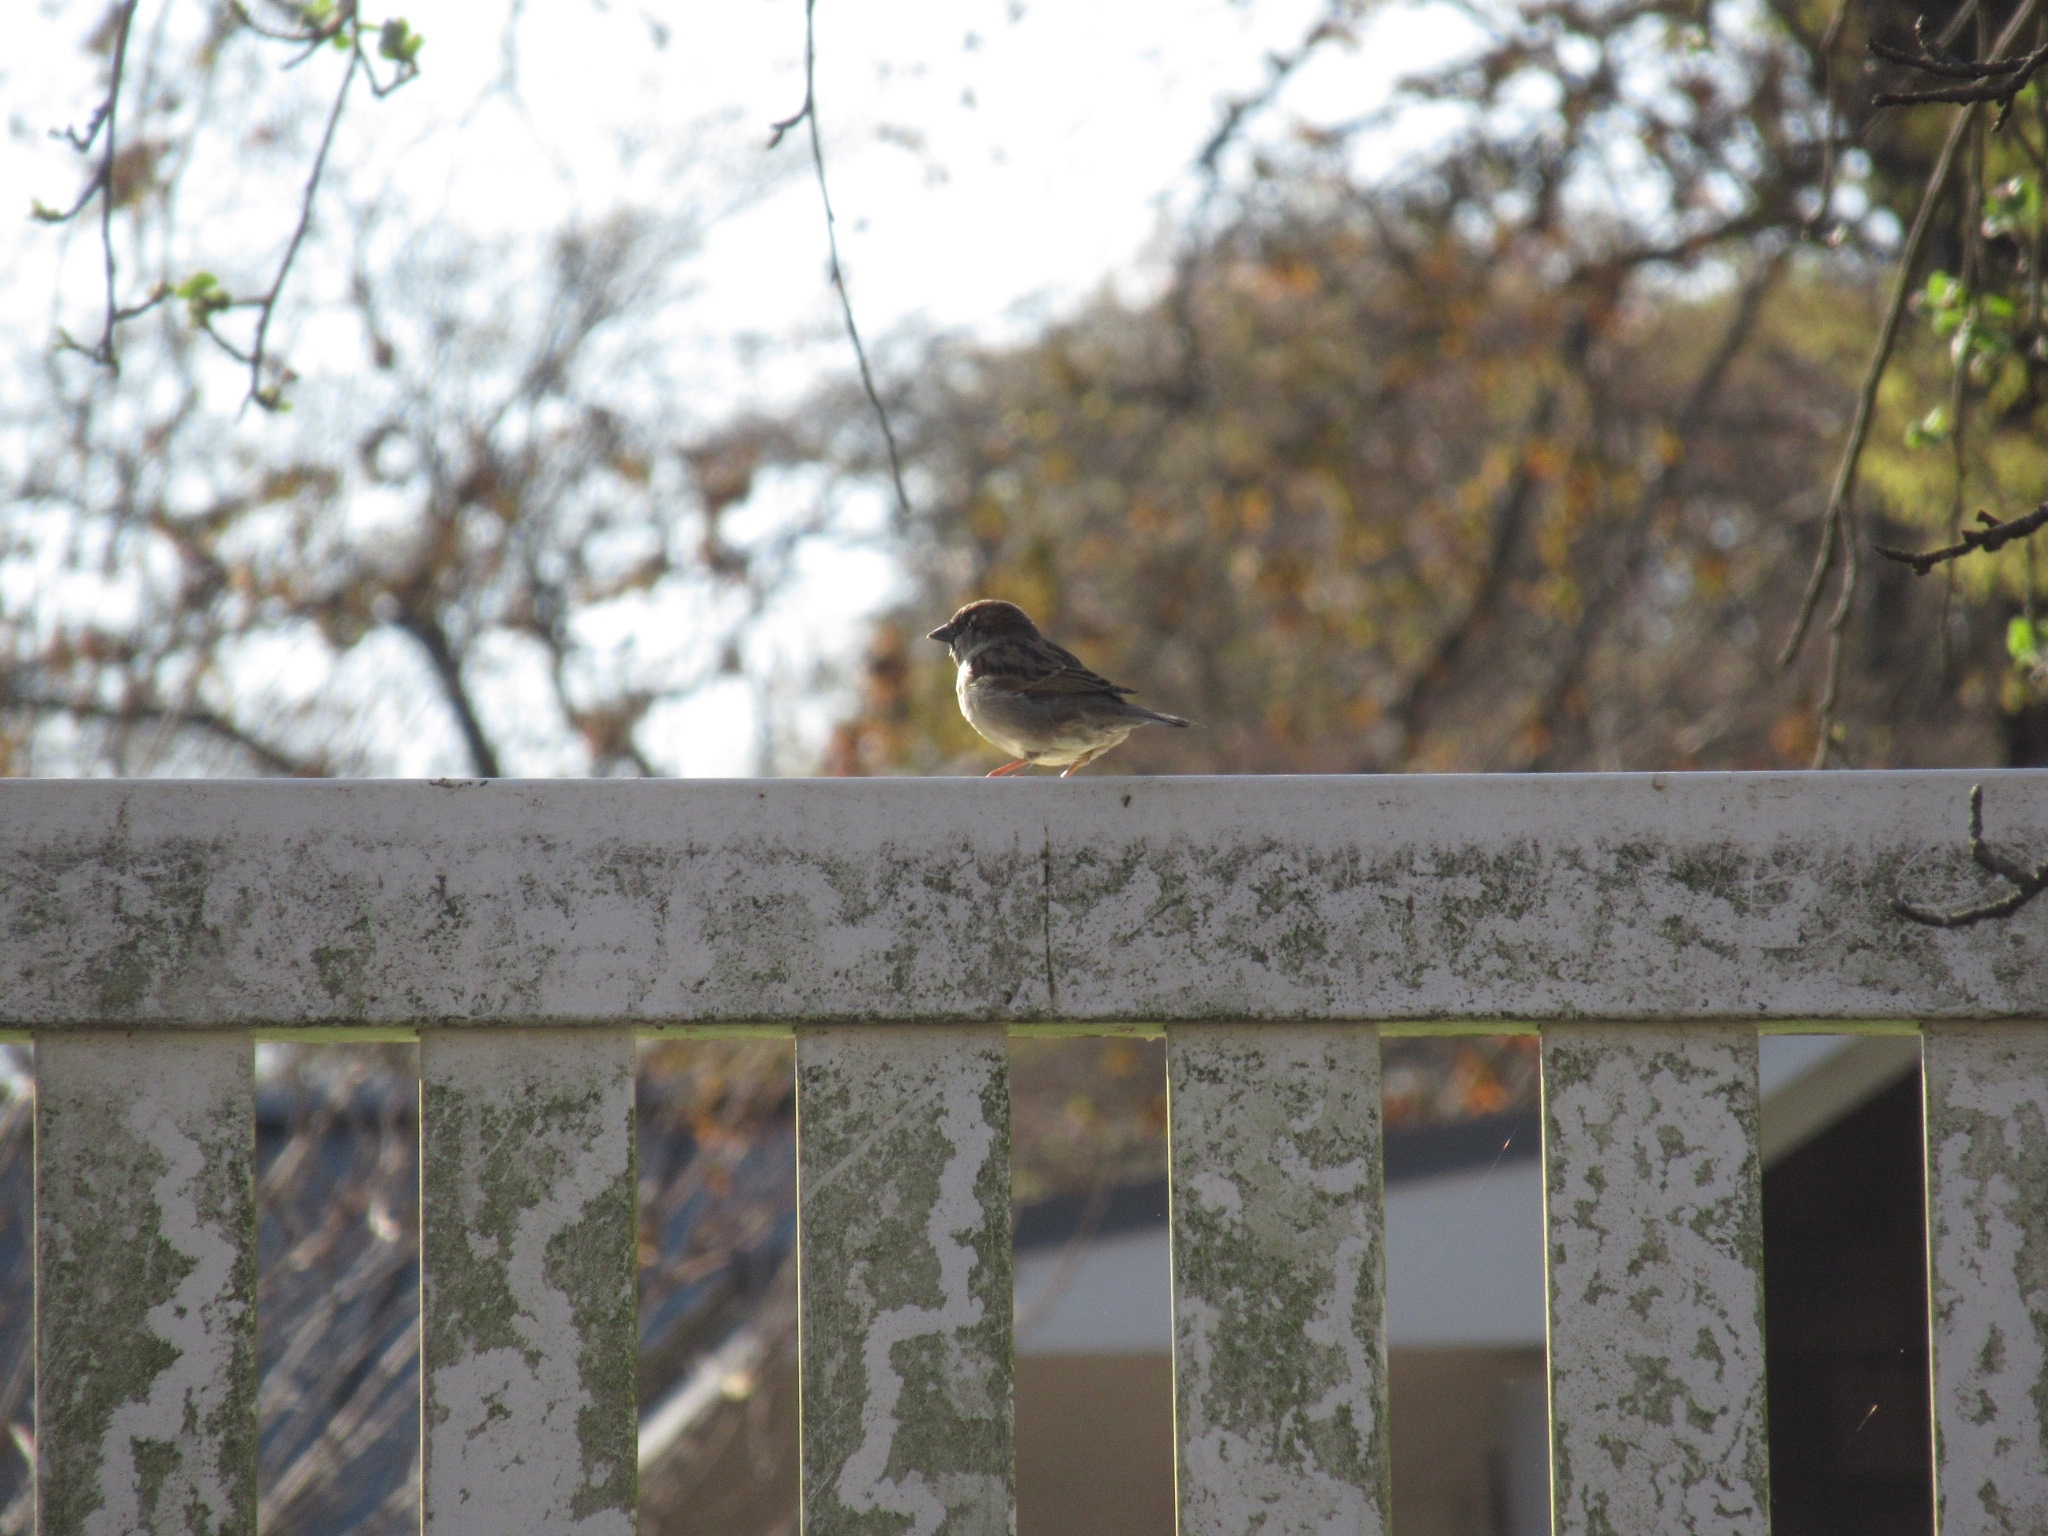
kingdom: Animalia
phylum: Chordata
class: Aves
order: Passeriformes
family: Passeridae
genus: Passer
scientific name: Passer domesticus
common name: House sparrow
